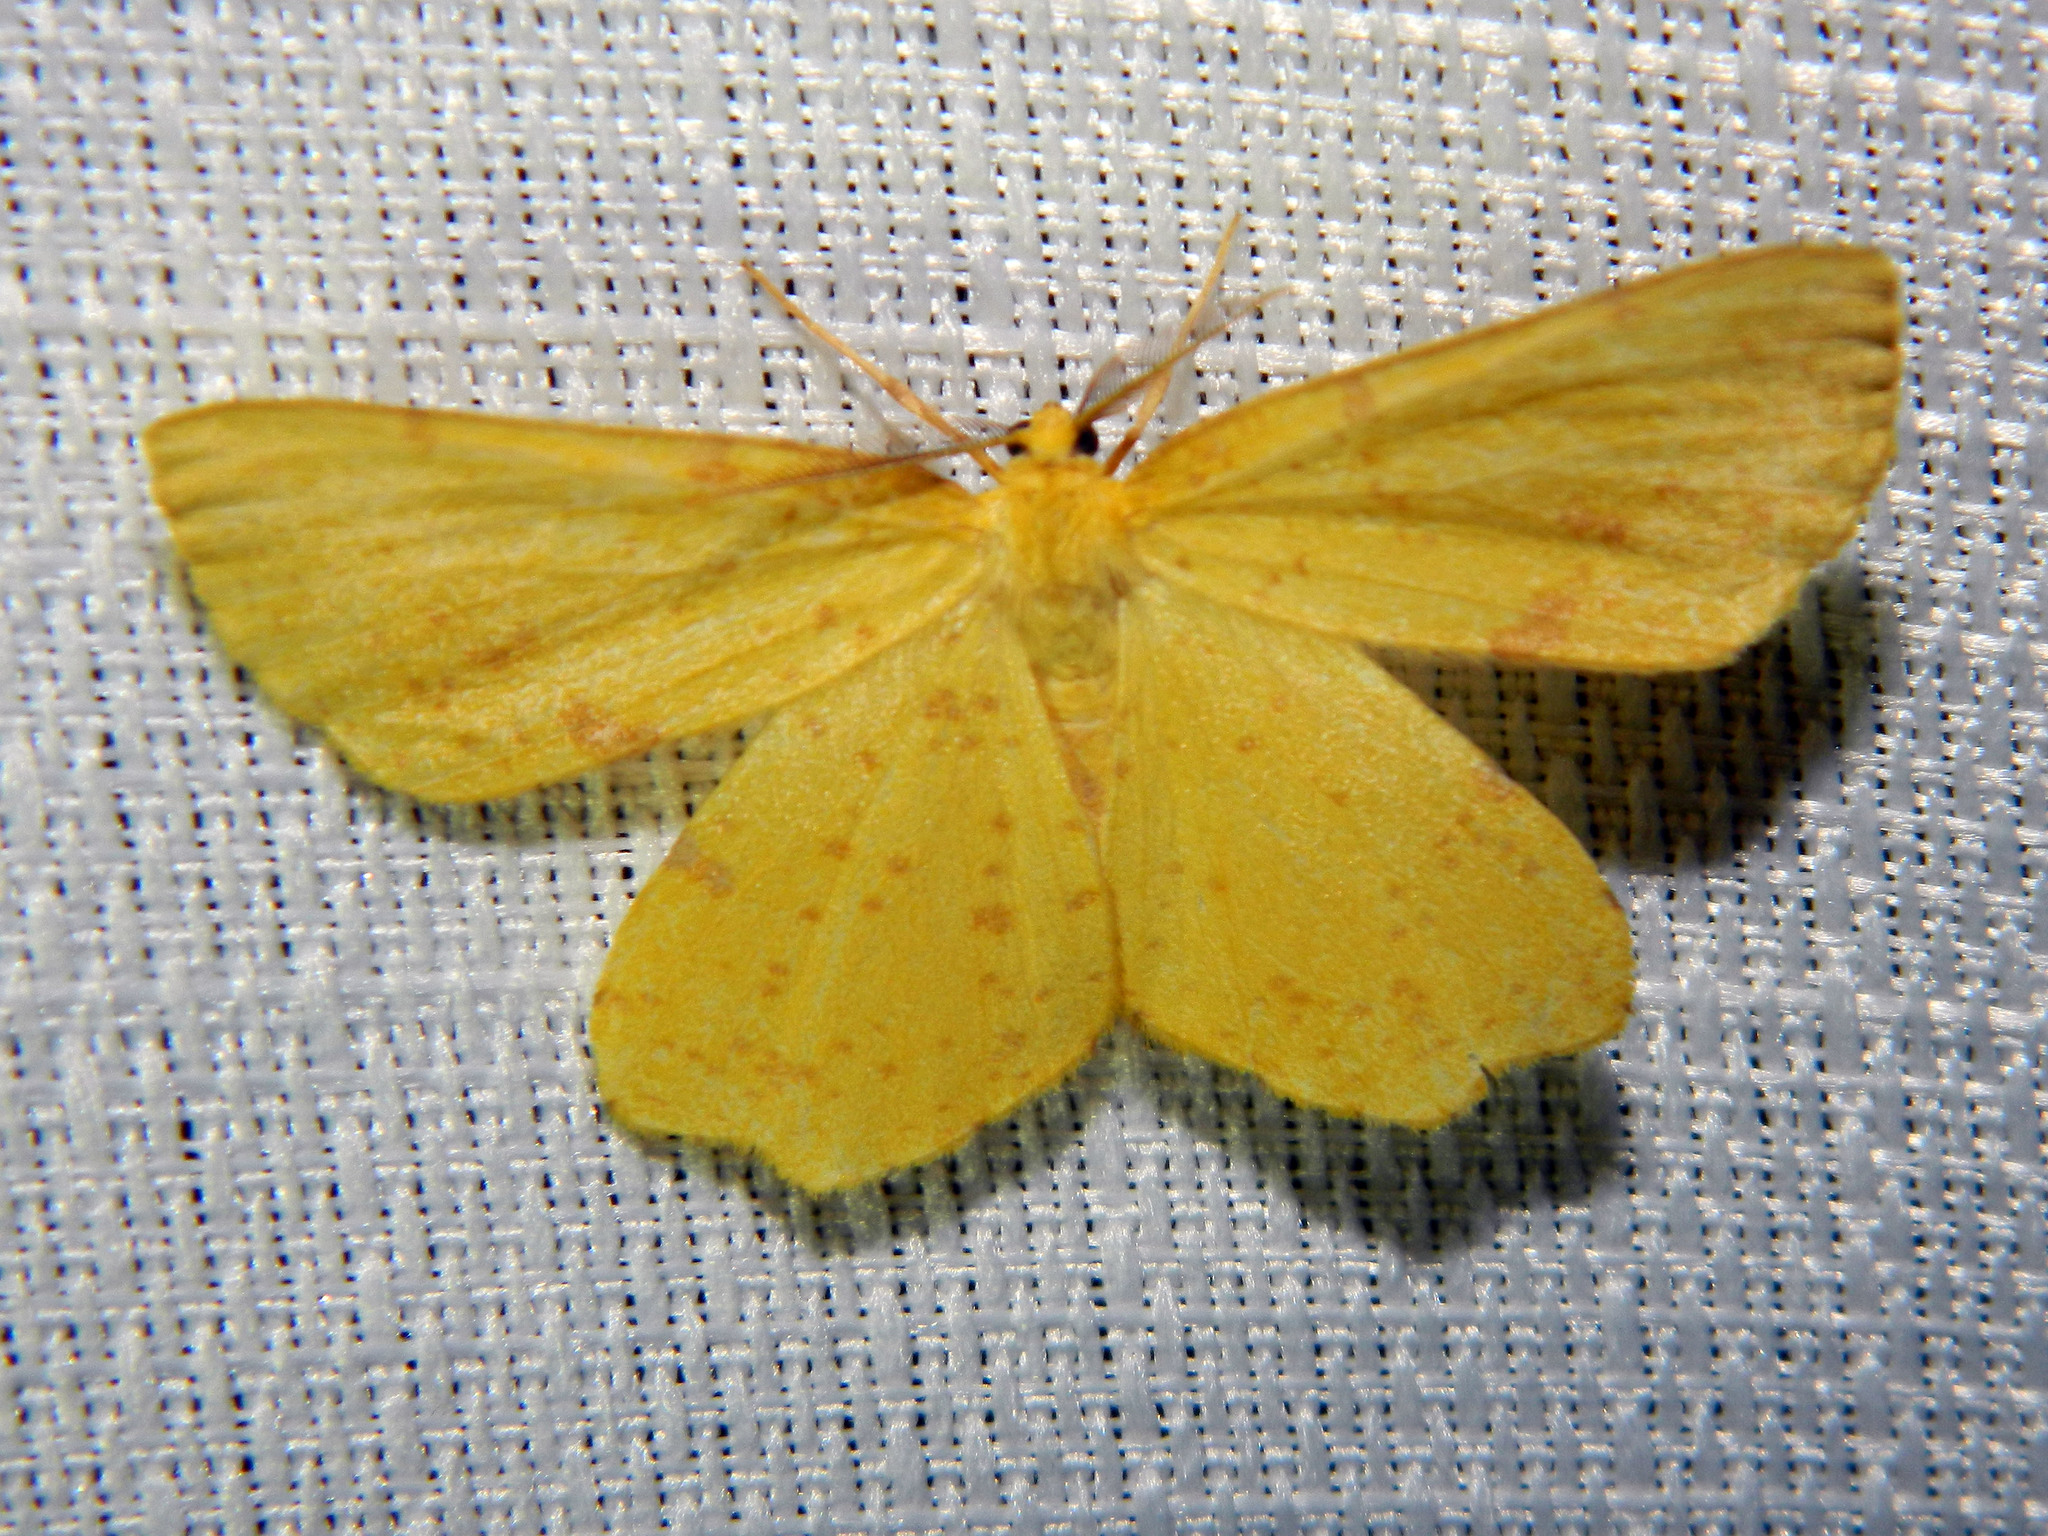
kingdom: Animalia
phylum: Arthropoda
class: Insecta
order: Lepidoptera
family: Geometridae
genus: Xanthotype
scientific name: Xanthotype
